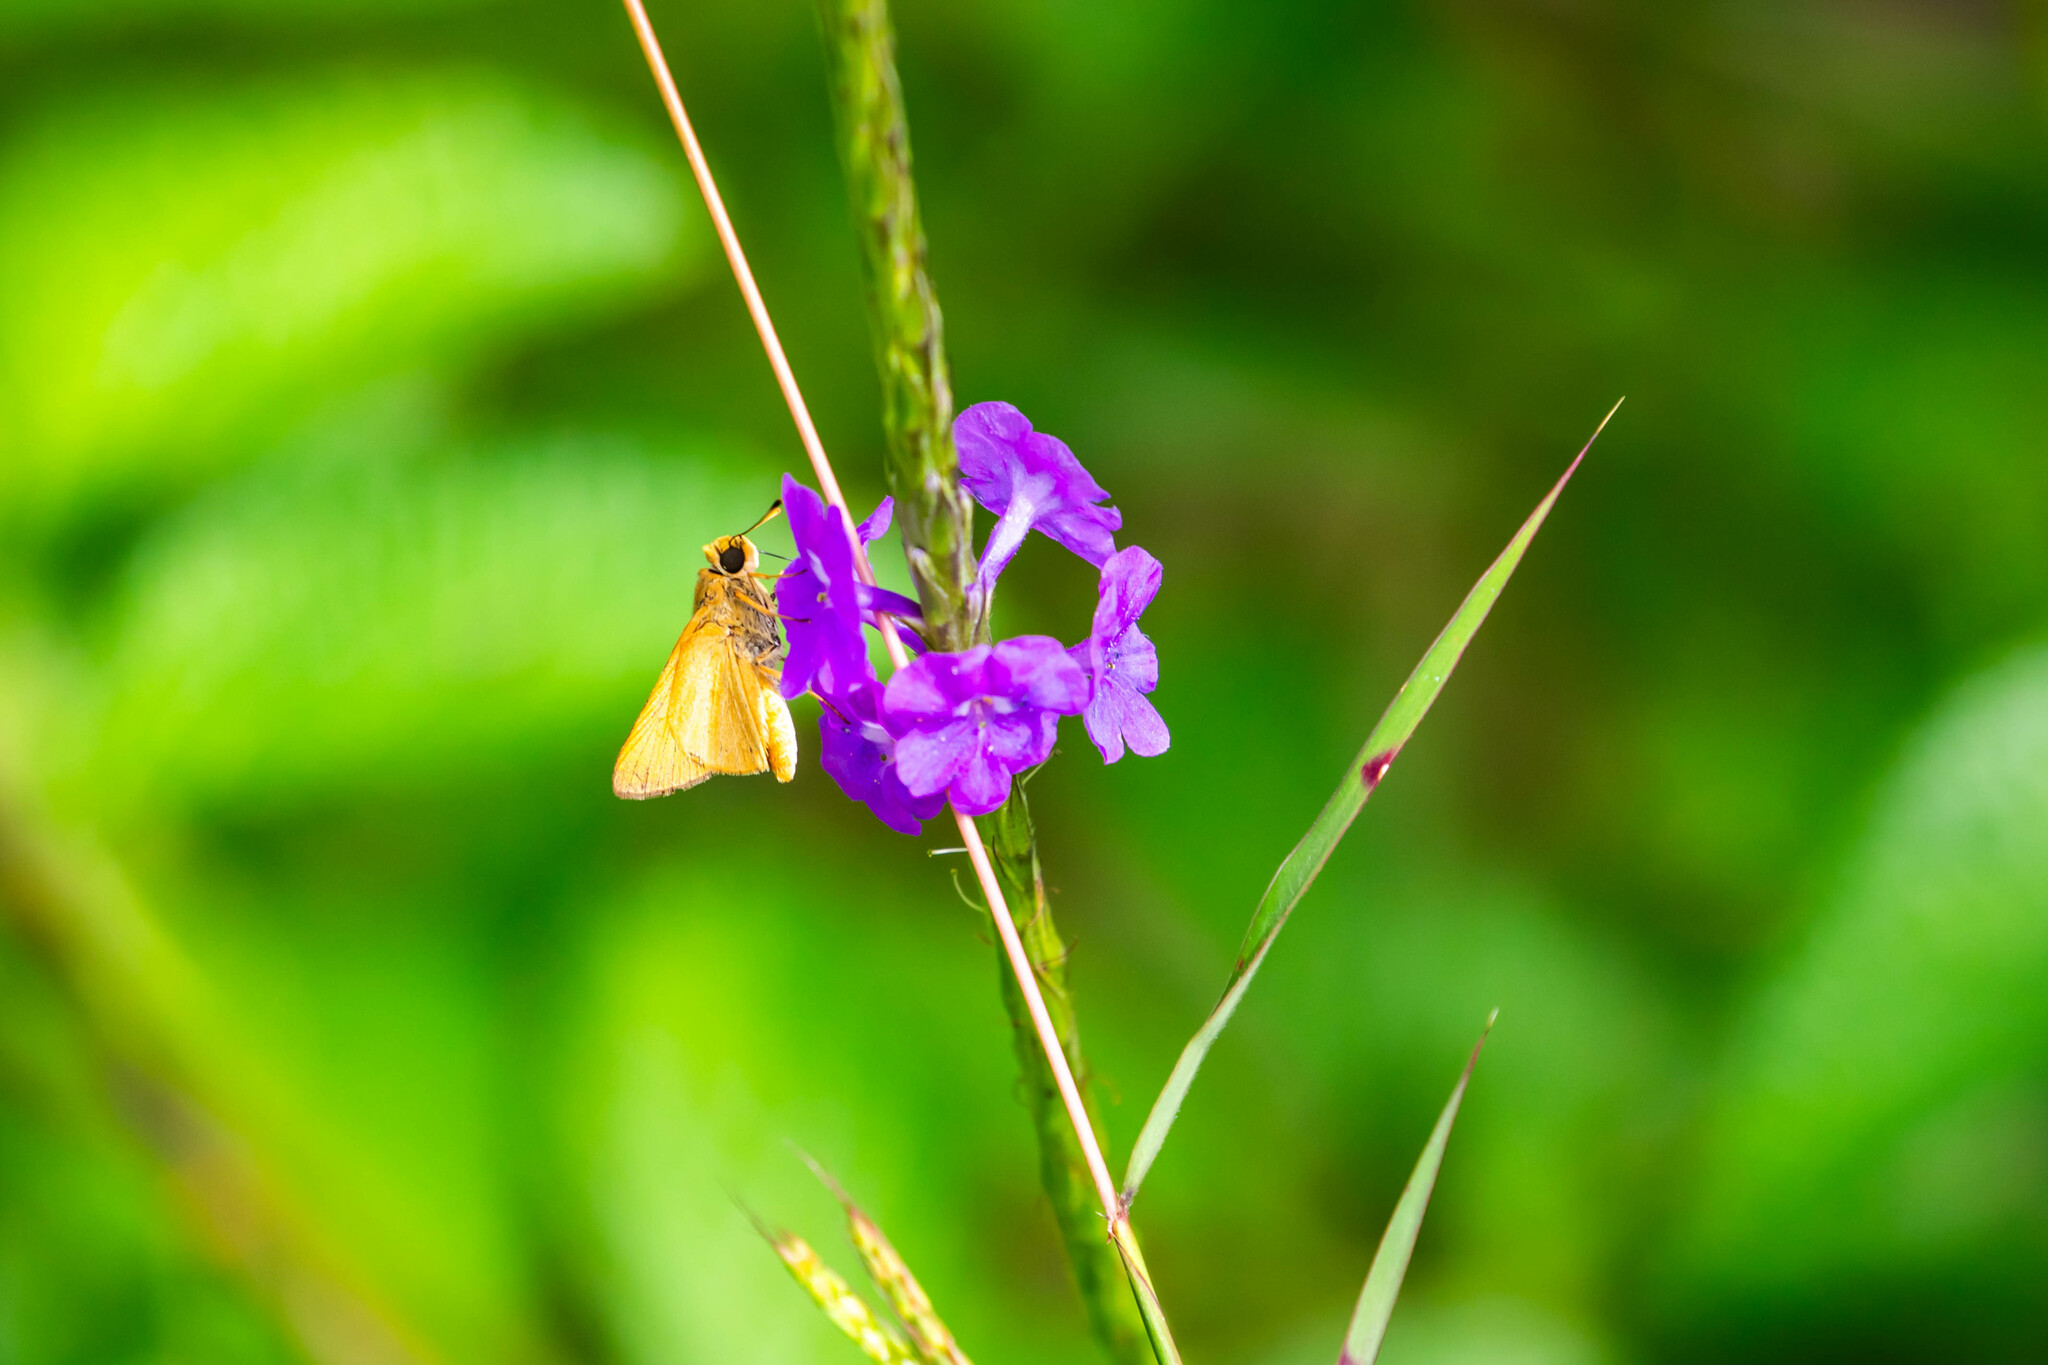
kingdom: Animalia
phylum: Arthropoda
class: Insecta
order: Lepidoptera
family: Hesperiidae
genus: Mellana
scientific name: Mellana eulogius
